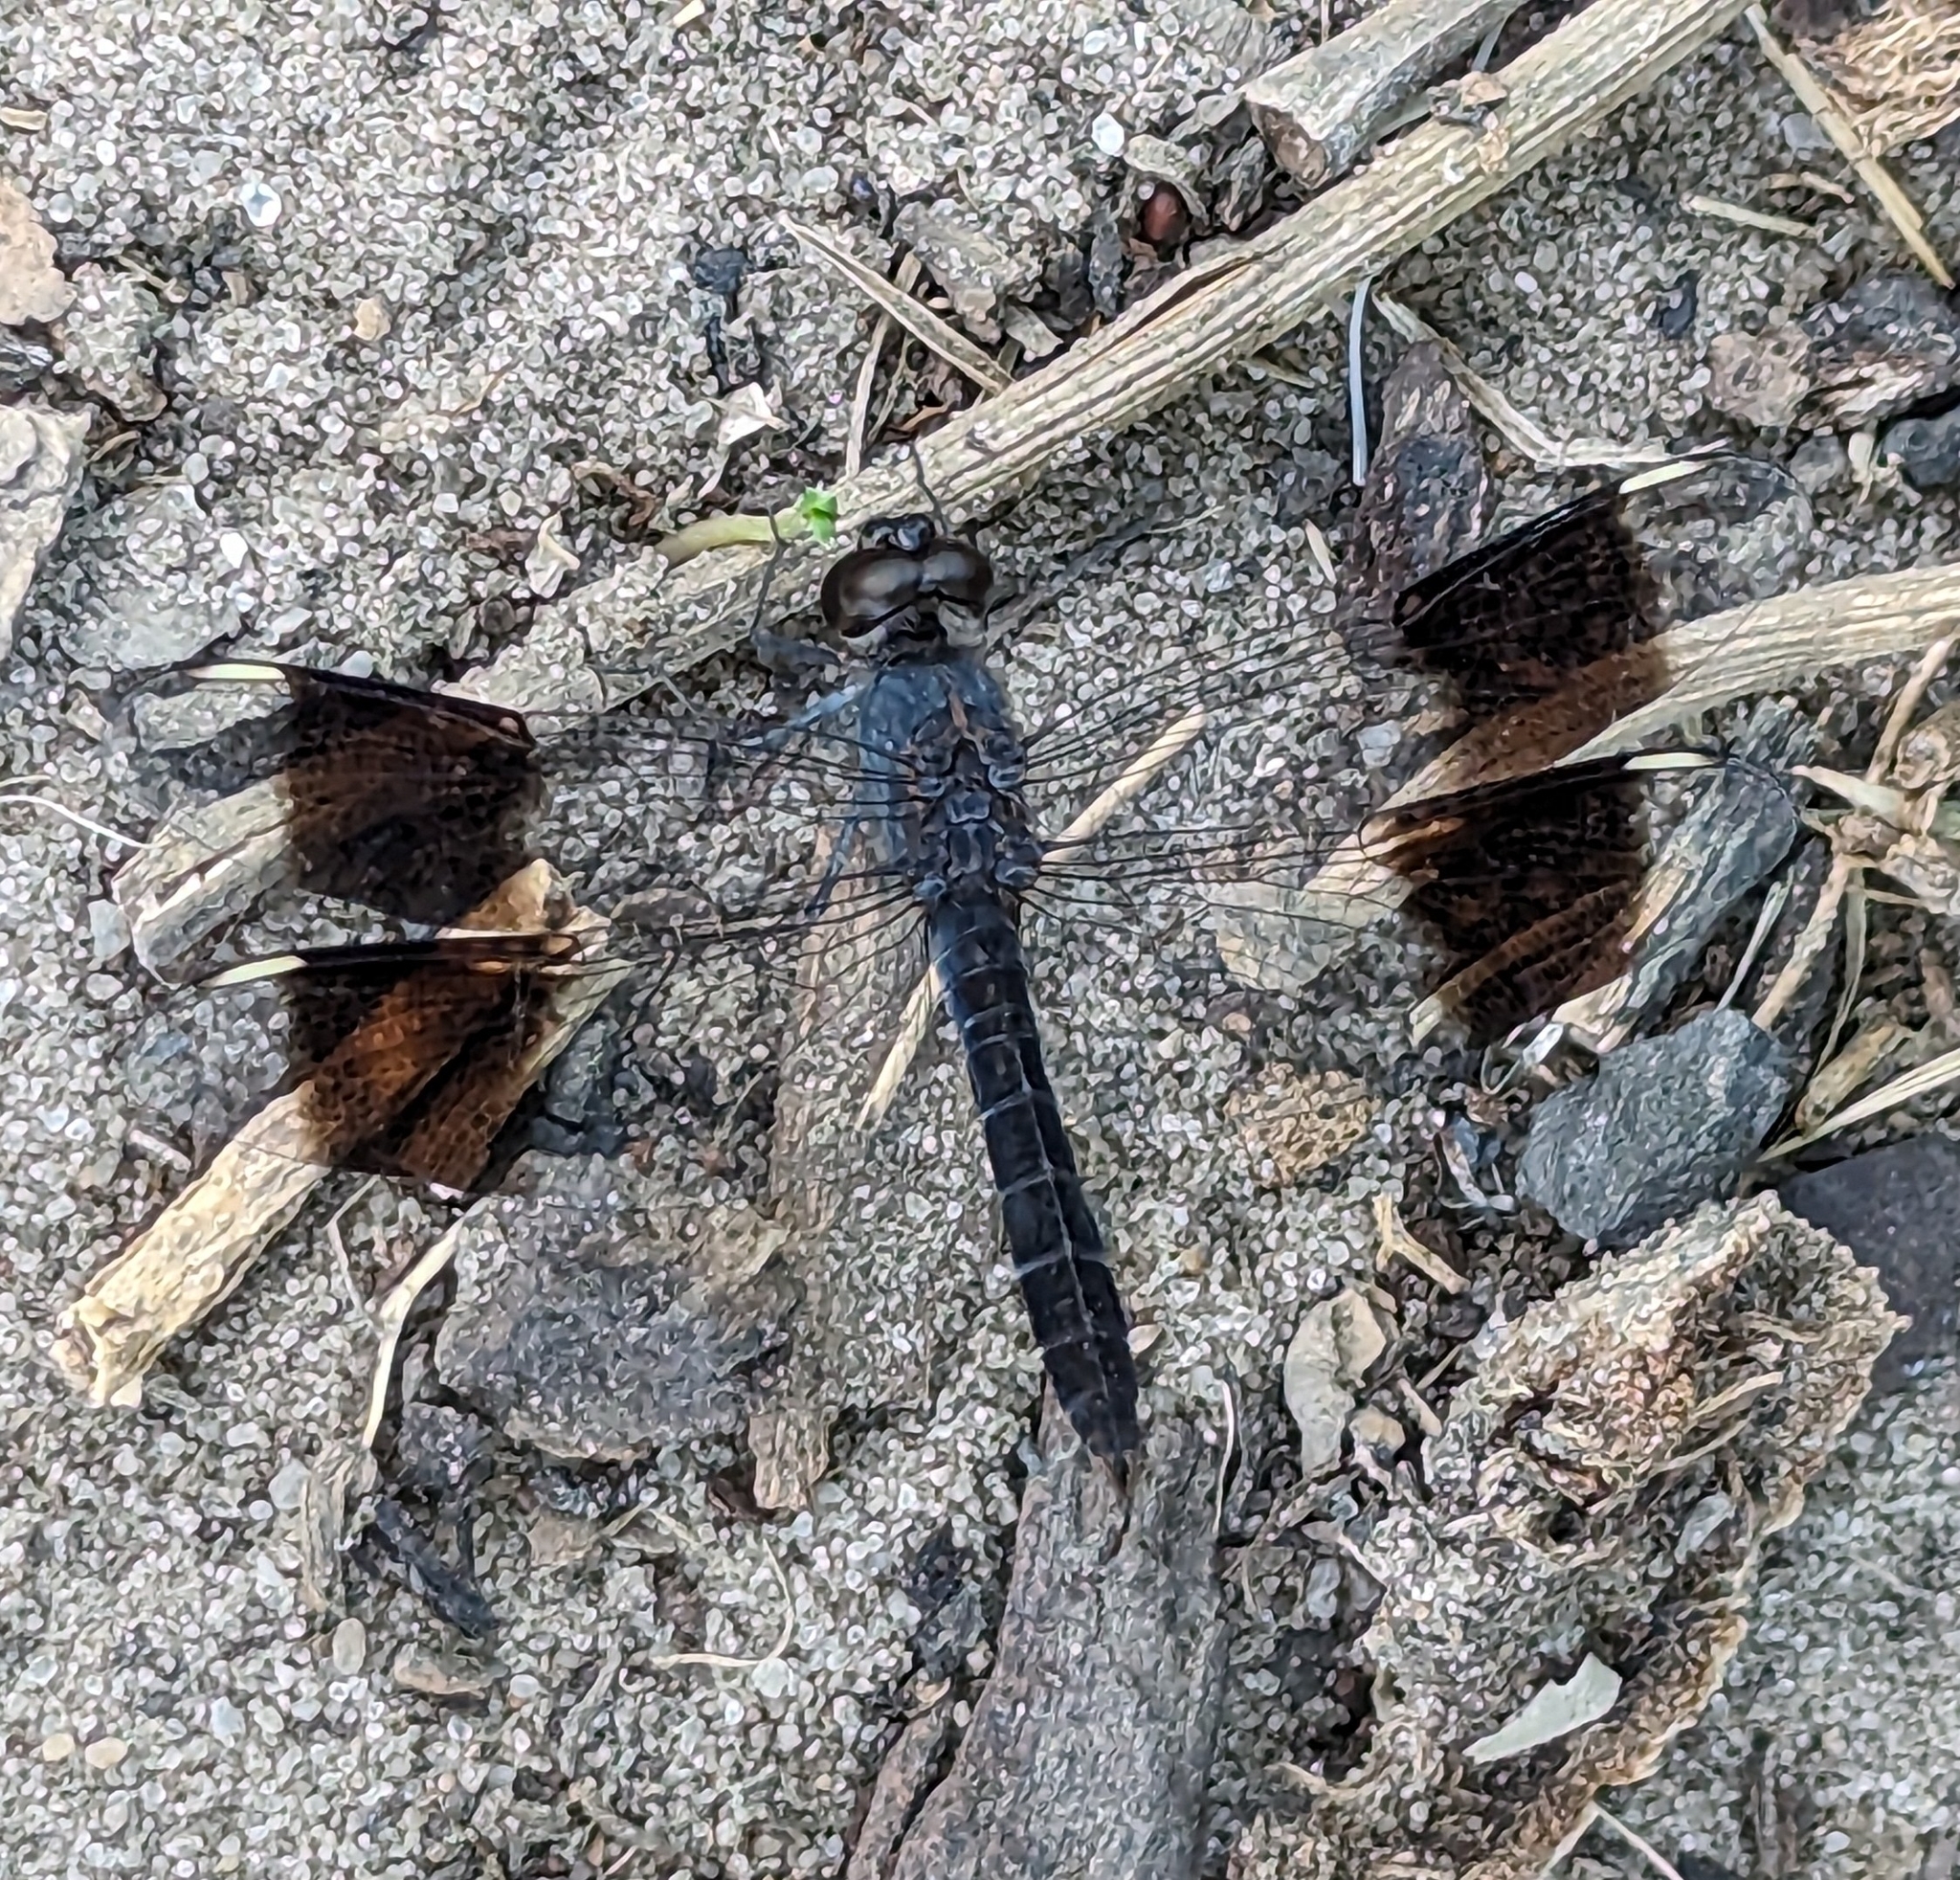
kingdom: Animalia
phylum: Arthropoda
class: Insecta
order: Odonata
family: Libellulidae
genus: Brachythemis
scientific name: Brachythemis leucosticta
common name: Banded groundling
